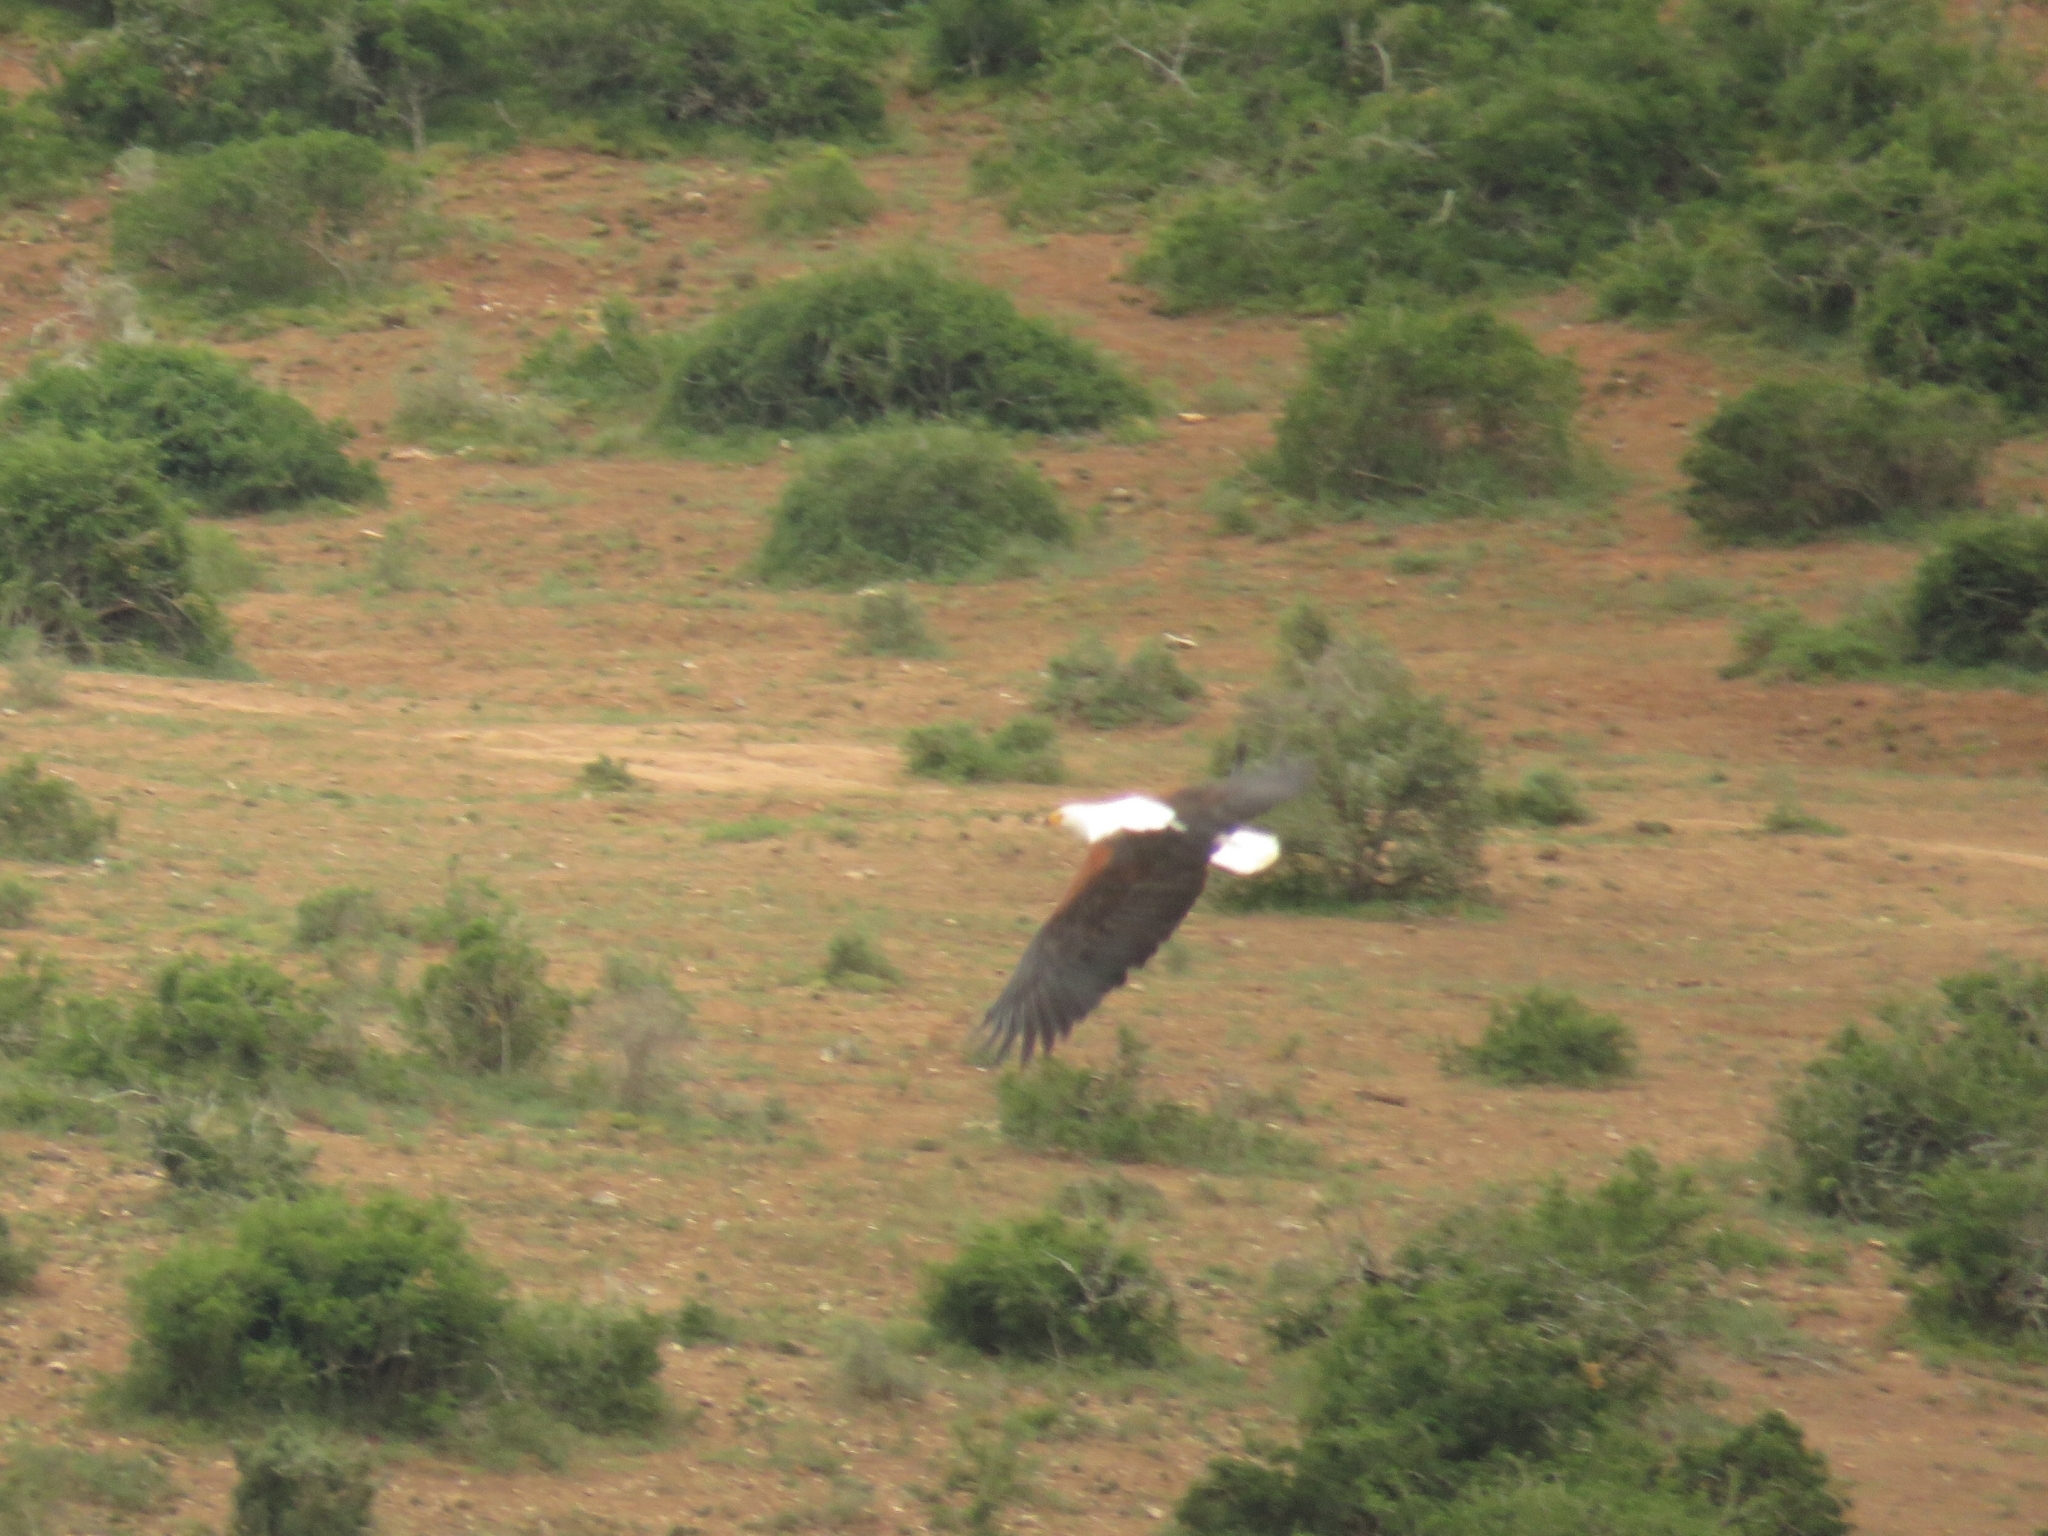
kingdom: Animalia
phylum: Chordata
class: Aves
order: Accipitriformes
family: Accipitridae
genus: Haliaeetus
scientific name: Haliaeetus vocifer
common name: African fish eagle
